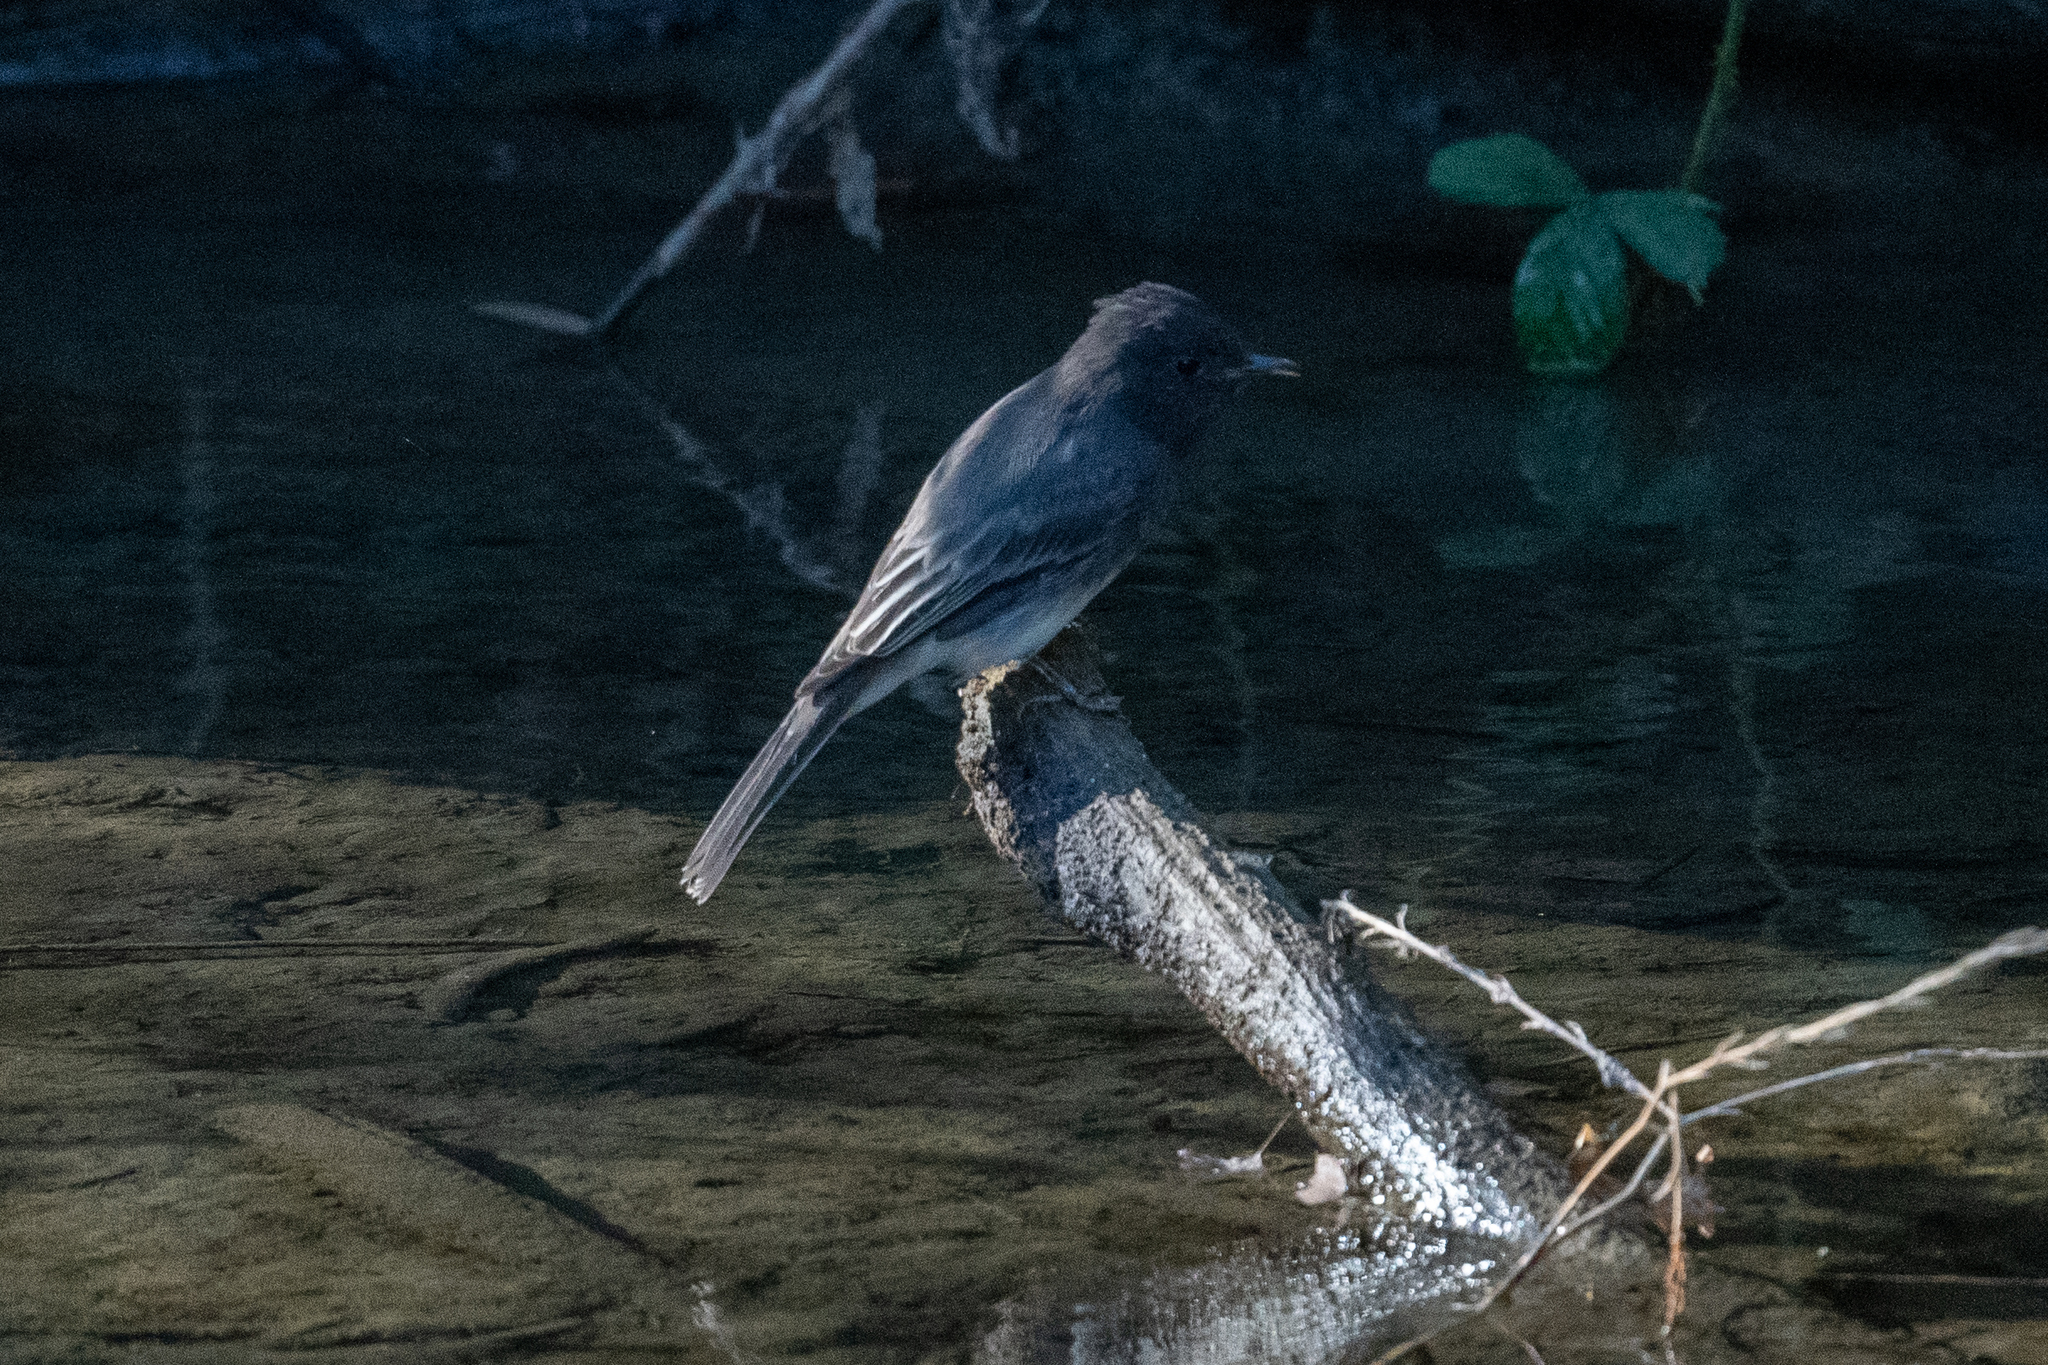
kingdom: Animalia
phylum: Chordata
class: Aves
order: Passeriformes
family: Tyrannidae
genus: Sayornis
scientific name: Sayornis nigricans
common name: Black phoebe
